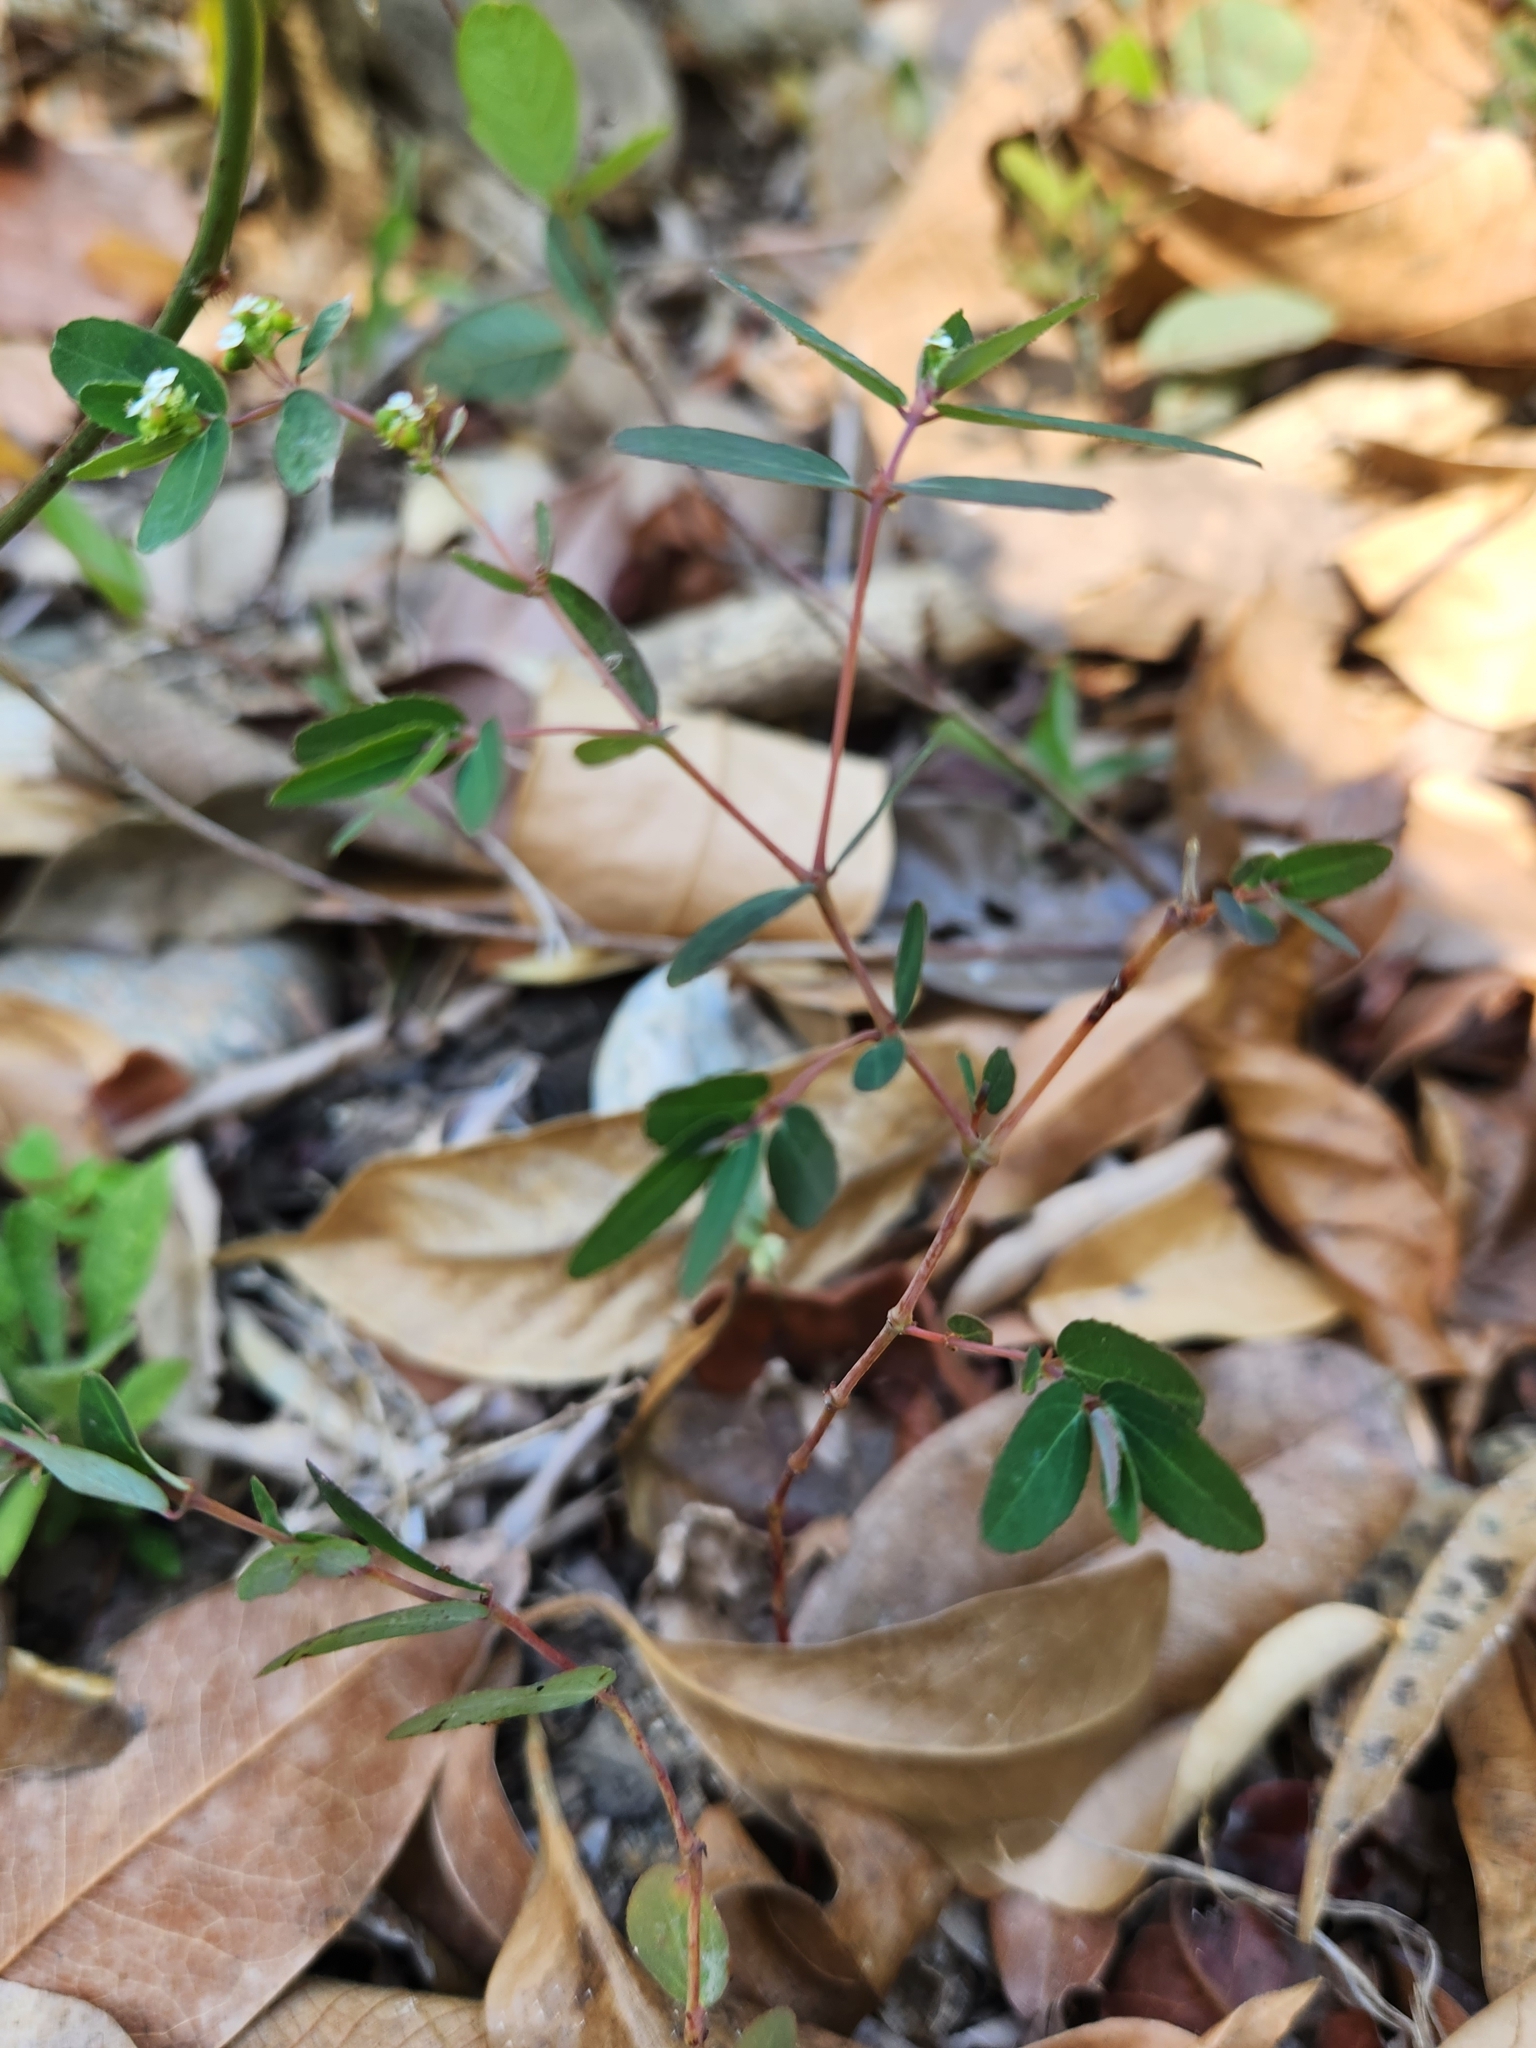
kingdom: Plantae
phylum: Tracheophyta
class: Magnoliopsida
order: Malpighiales
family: Euphorbiaceae
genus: Euphorbia
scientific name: Euphorbia hypericifolia
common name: Graceful sandmat
